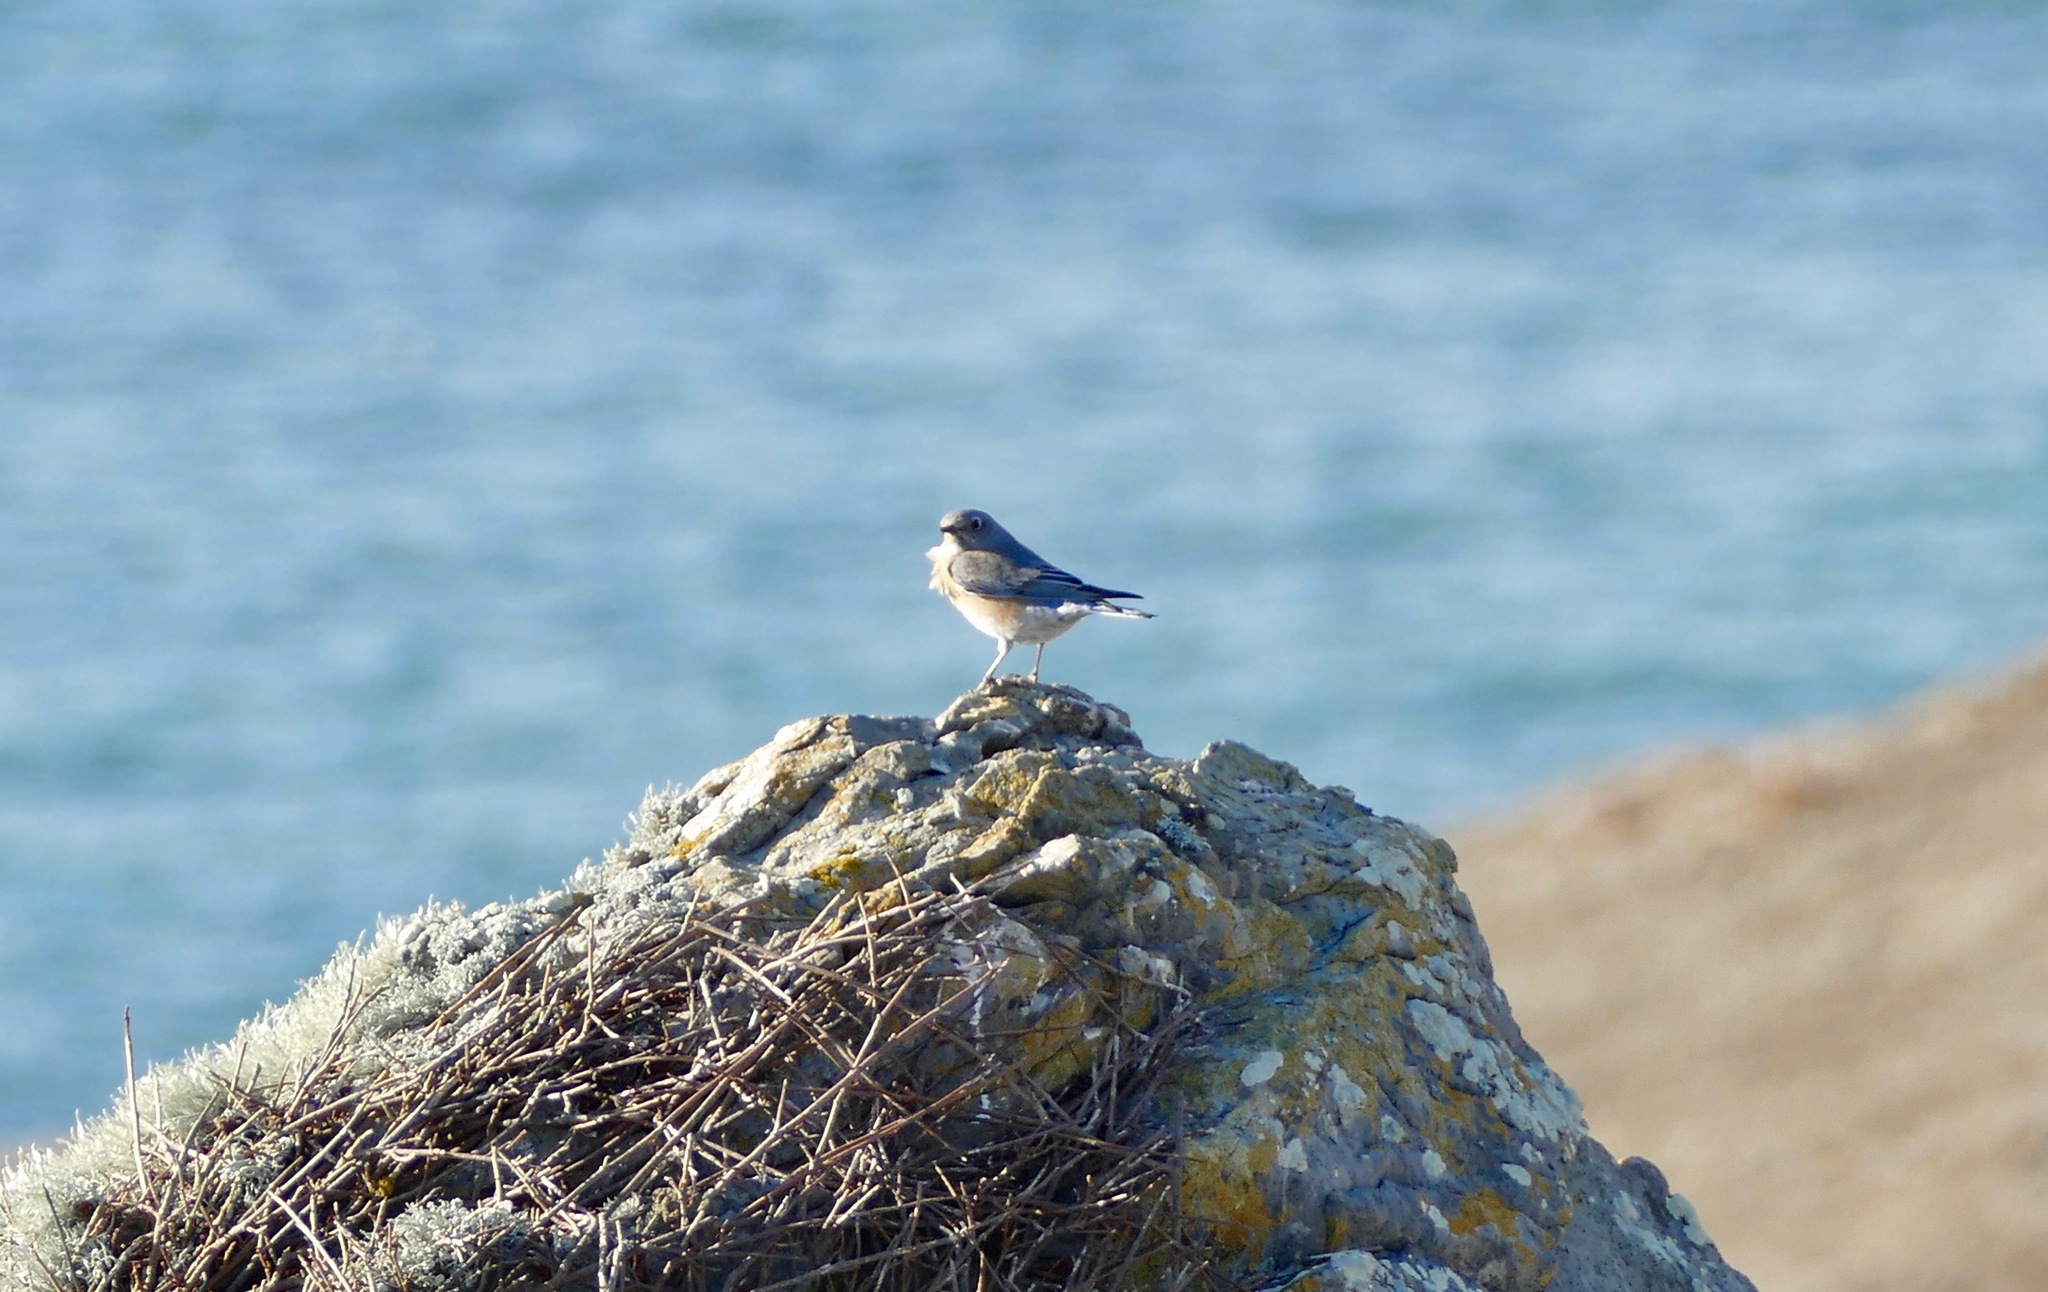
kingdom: Animalia
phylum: Chordata
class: Aves
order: Passeriformes
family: Turdidae
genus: Sialia
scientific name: Sialia mexicana
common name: Western bluebird
